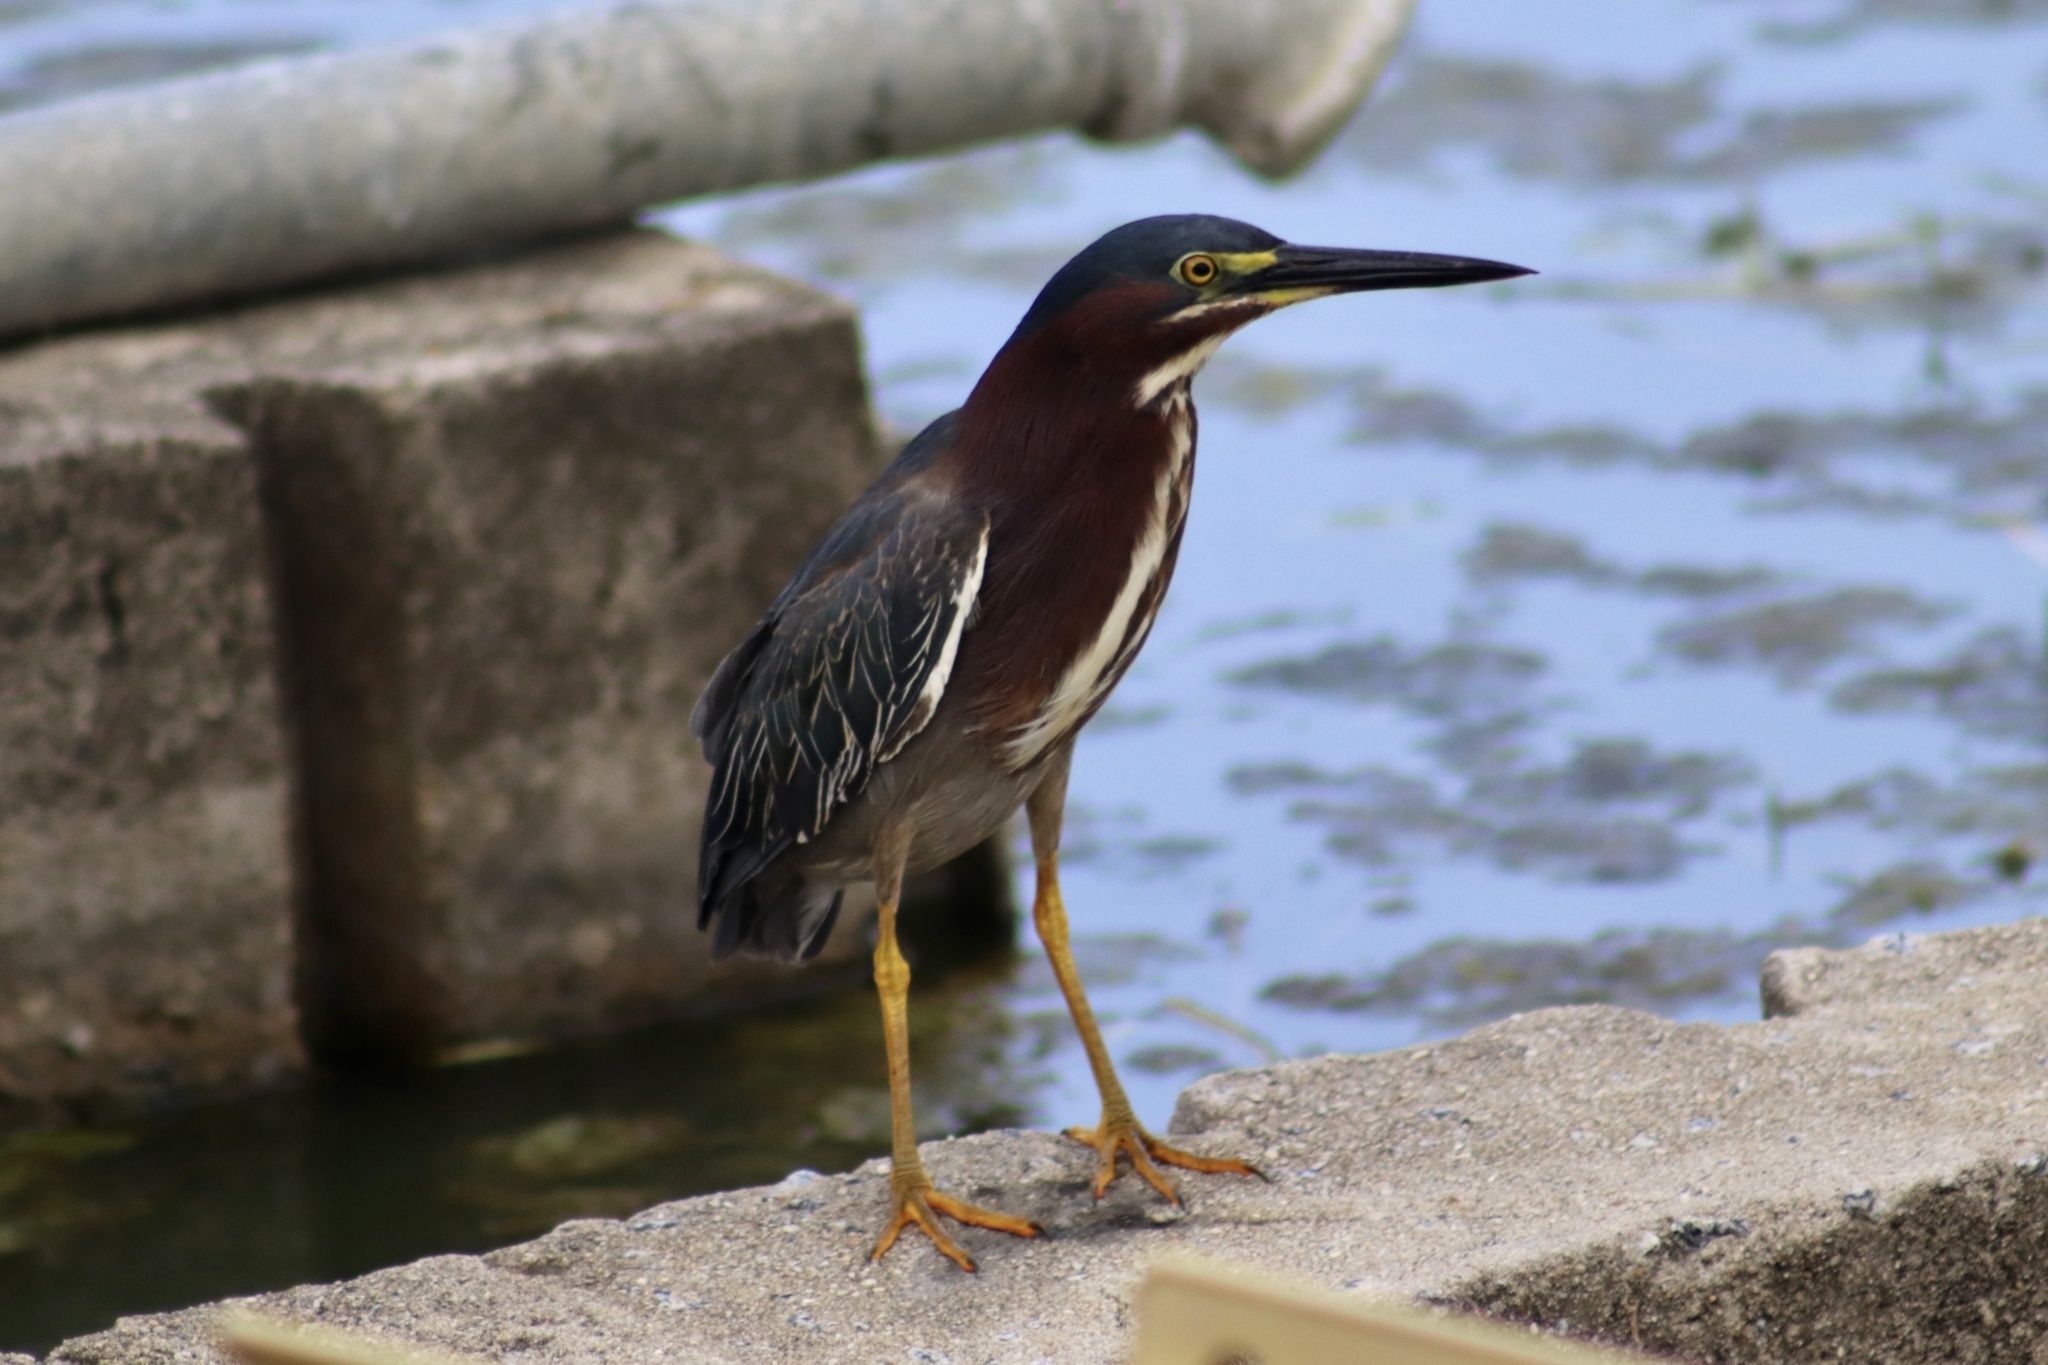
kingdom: Animalia
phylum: Chordata
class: Aves
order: Pelecaniformes
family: Ardeidae
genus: Butorides
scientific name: Butorides virescens
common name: Green heron
